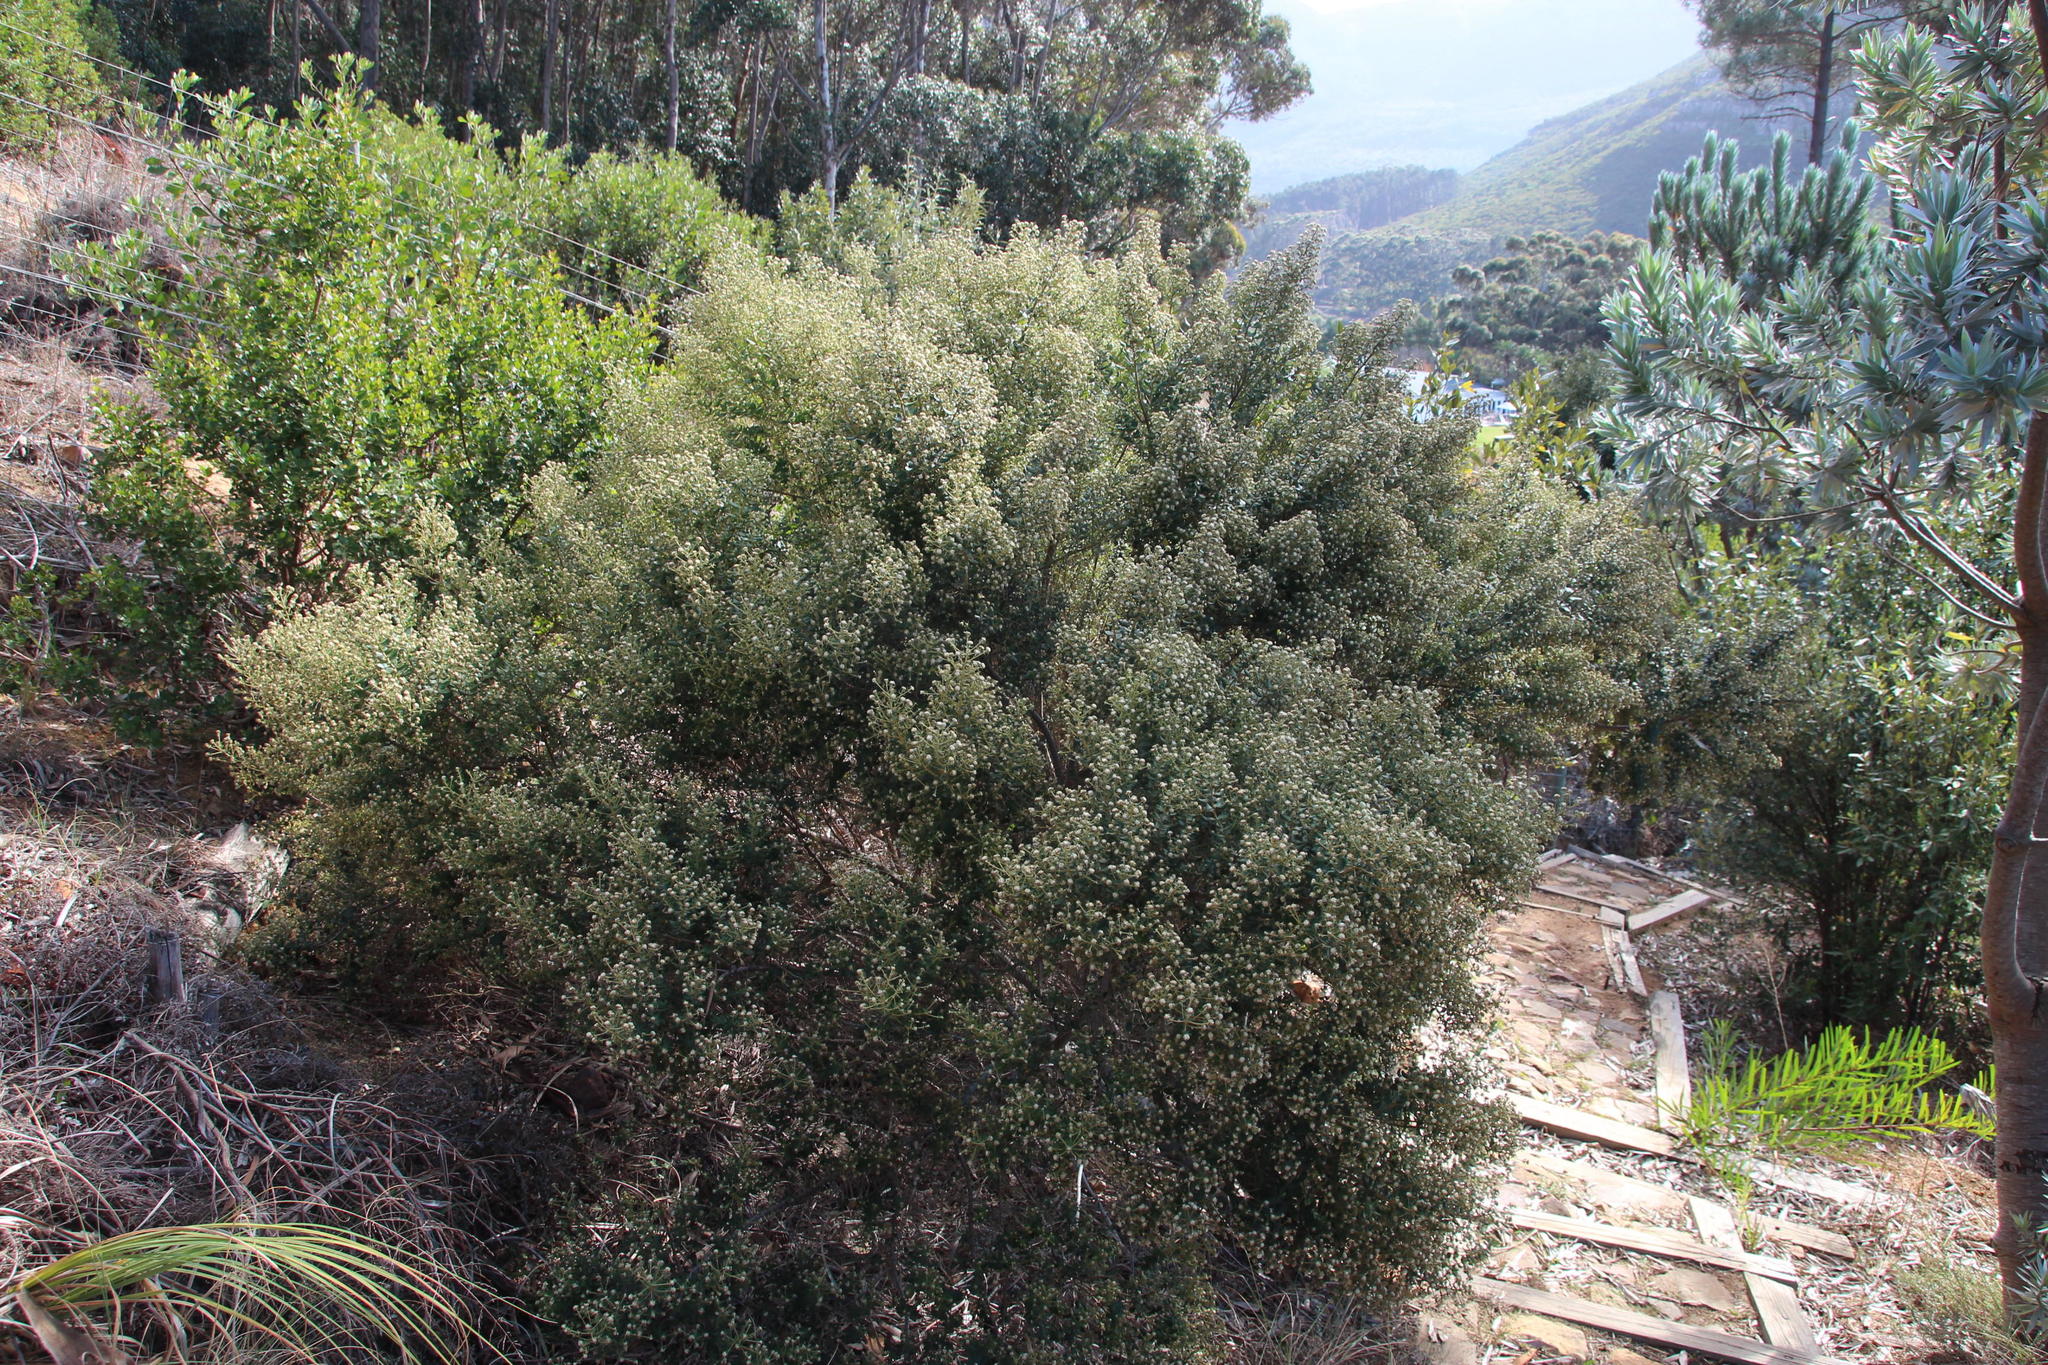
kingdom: Plantae
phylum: Tracheophyta
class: Magnoliopsida
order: Rosales
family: Rhamnaceae
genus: Phylica
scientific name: Phylica buxifolia
